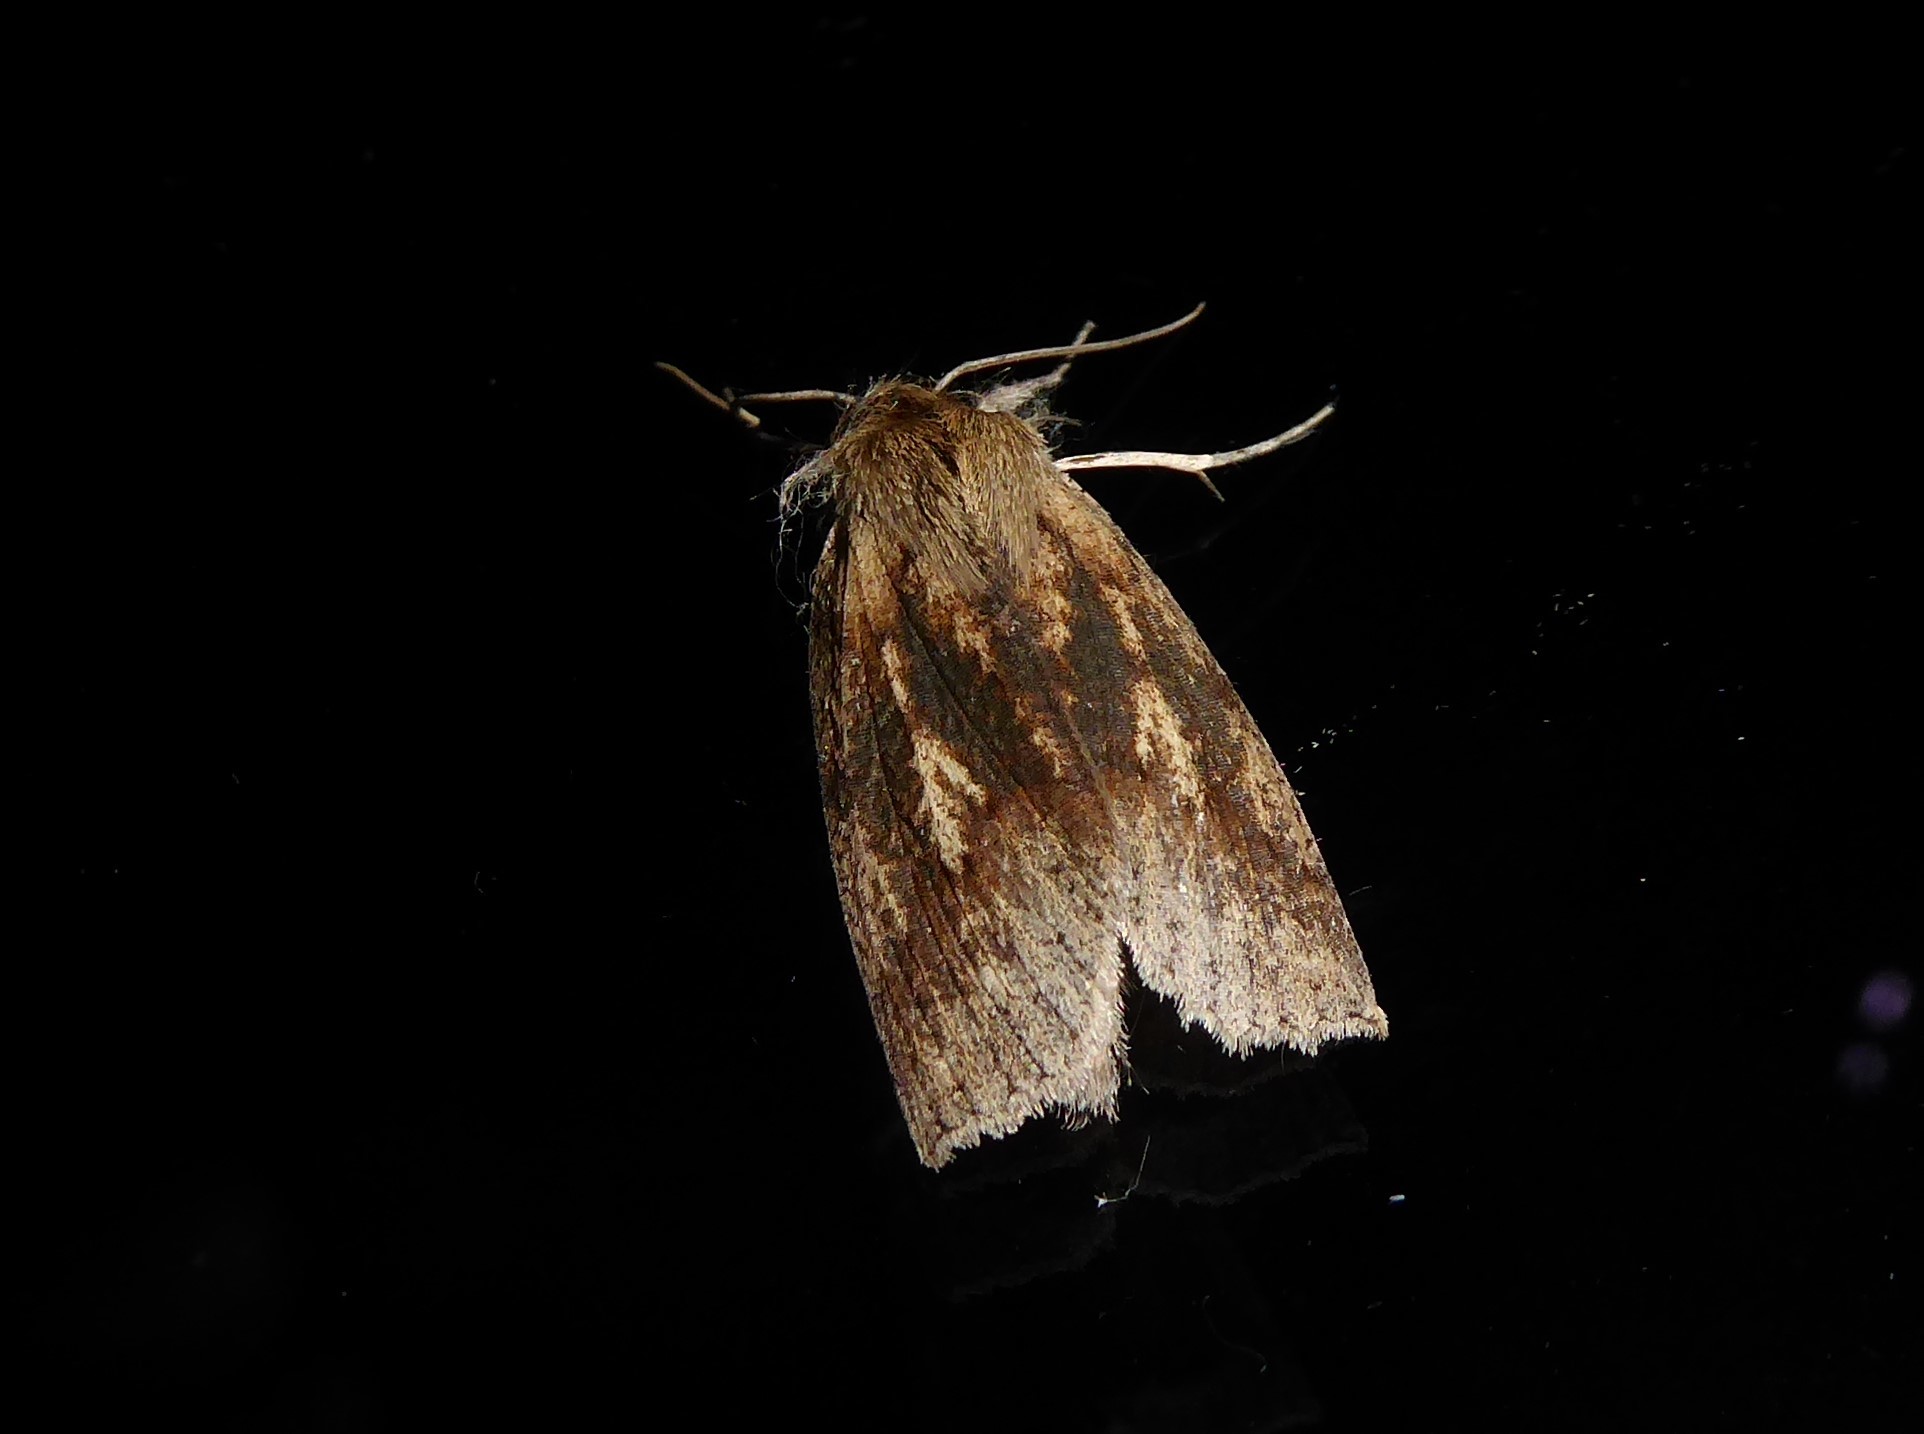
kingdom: Animalia
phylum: Arthropoda
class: Insecta
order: Lepidoptera
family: Geometridae
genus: Declana
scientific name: Declana leptomera
